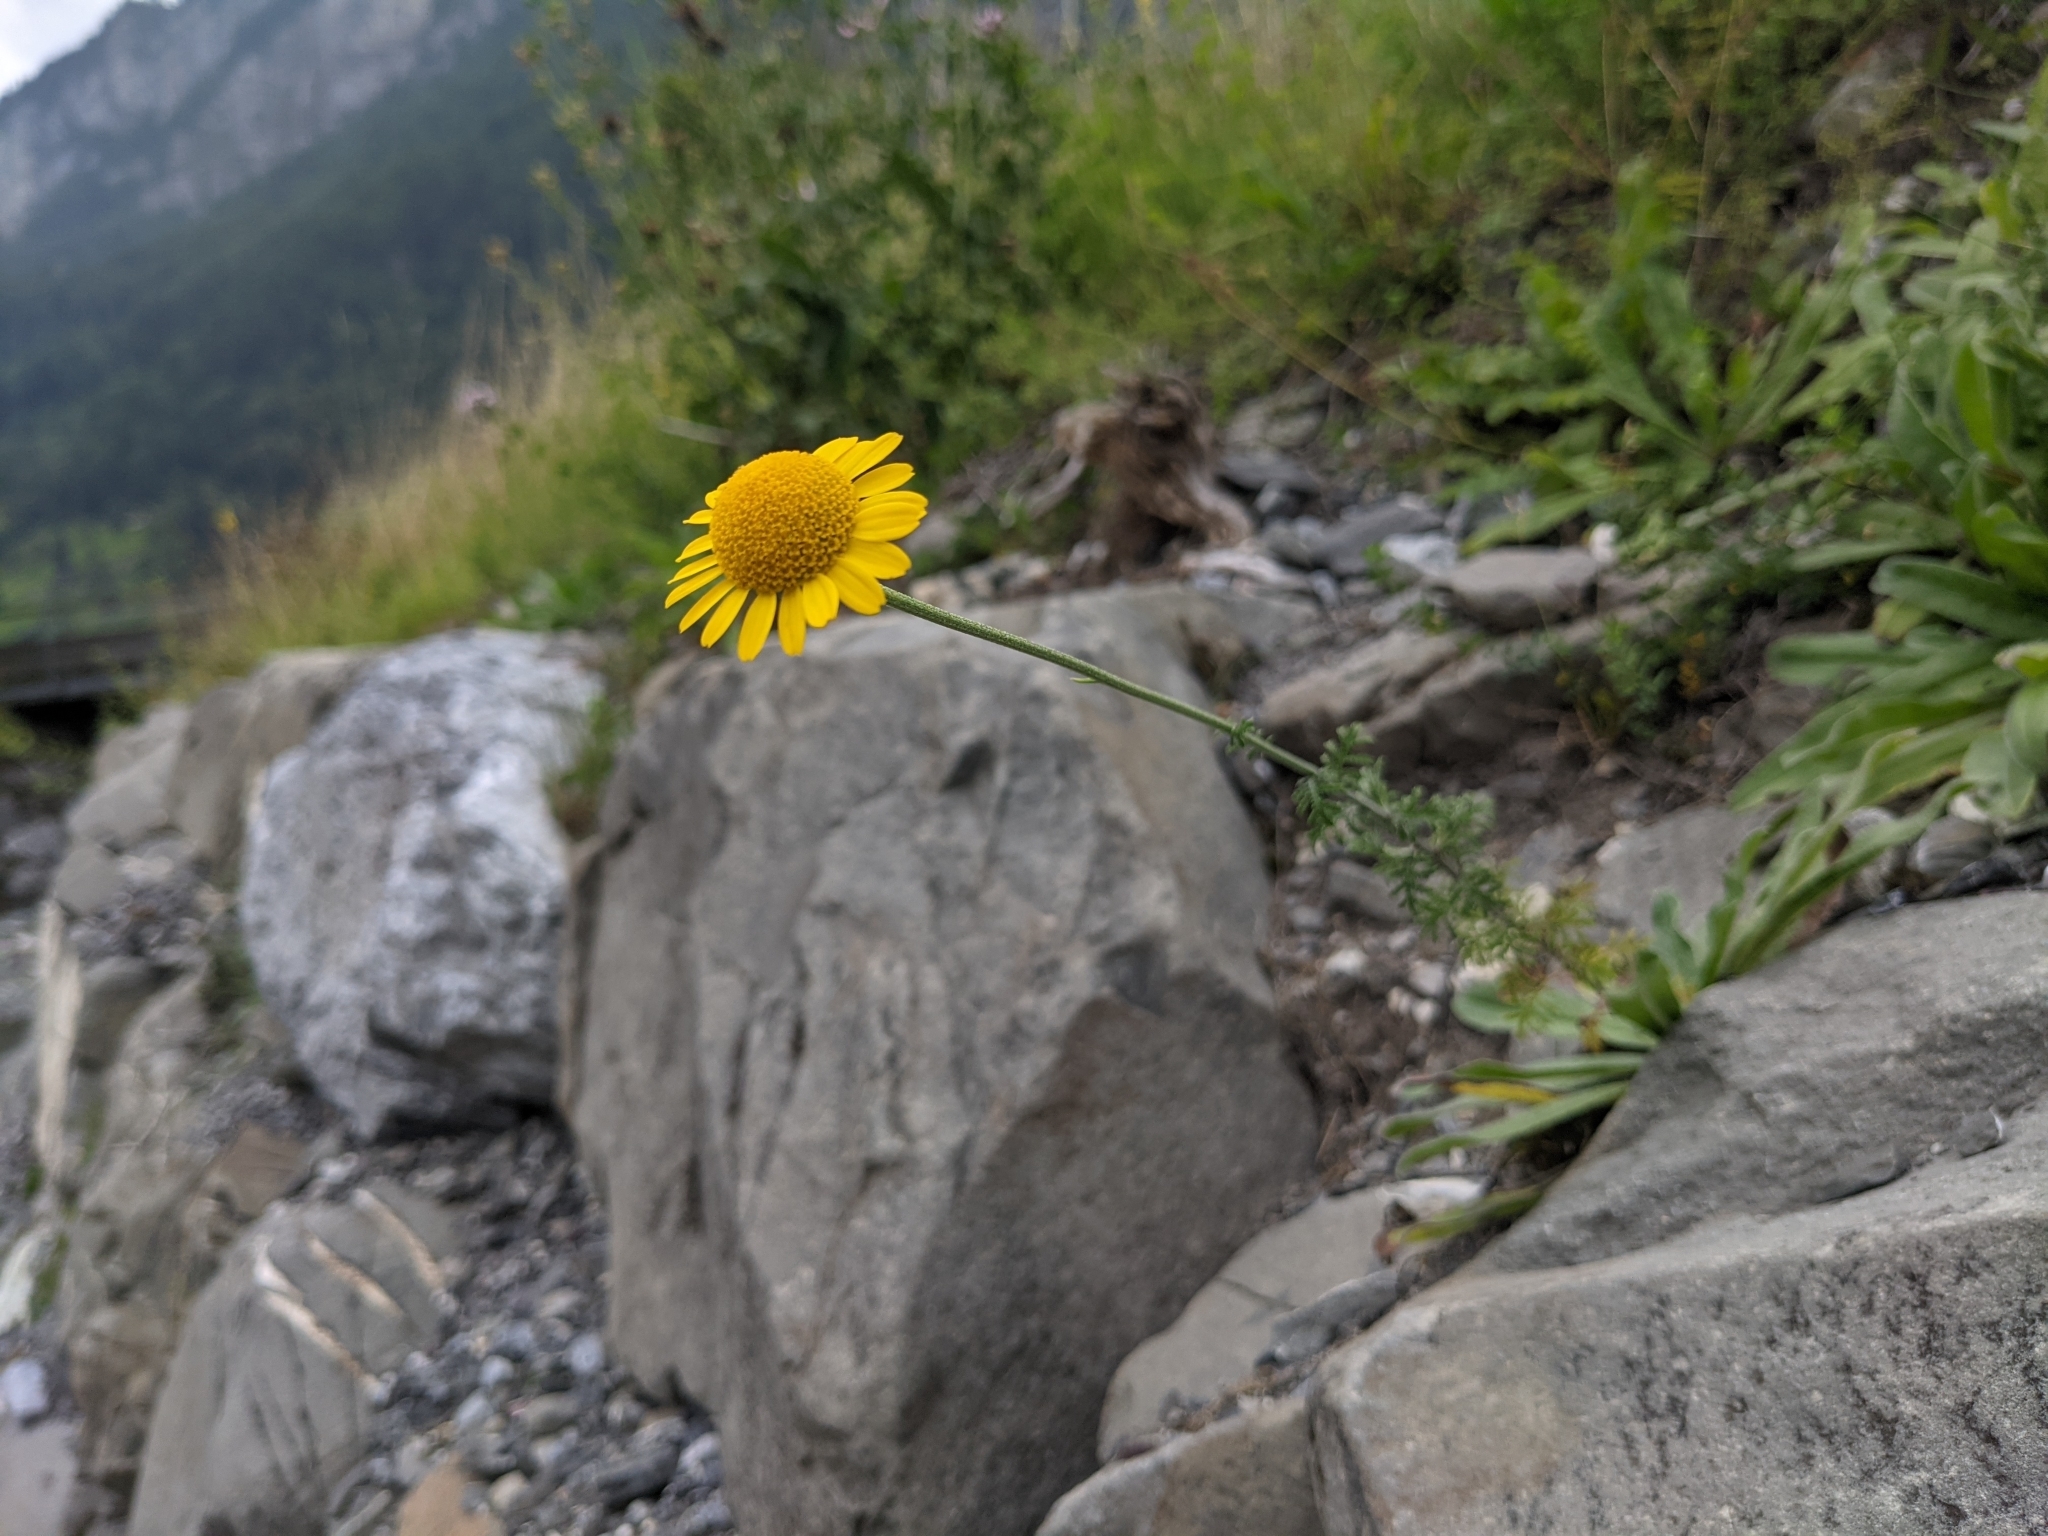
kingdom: Plantae
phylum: Tracheophyta
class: Magnoliopsida
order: Asterales
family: Asteraceae
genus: Cota
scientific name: Cota tinctoria
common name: Golden chamomile
